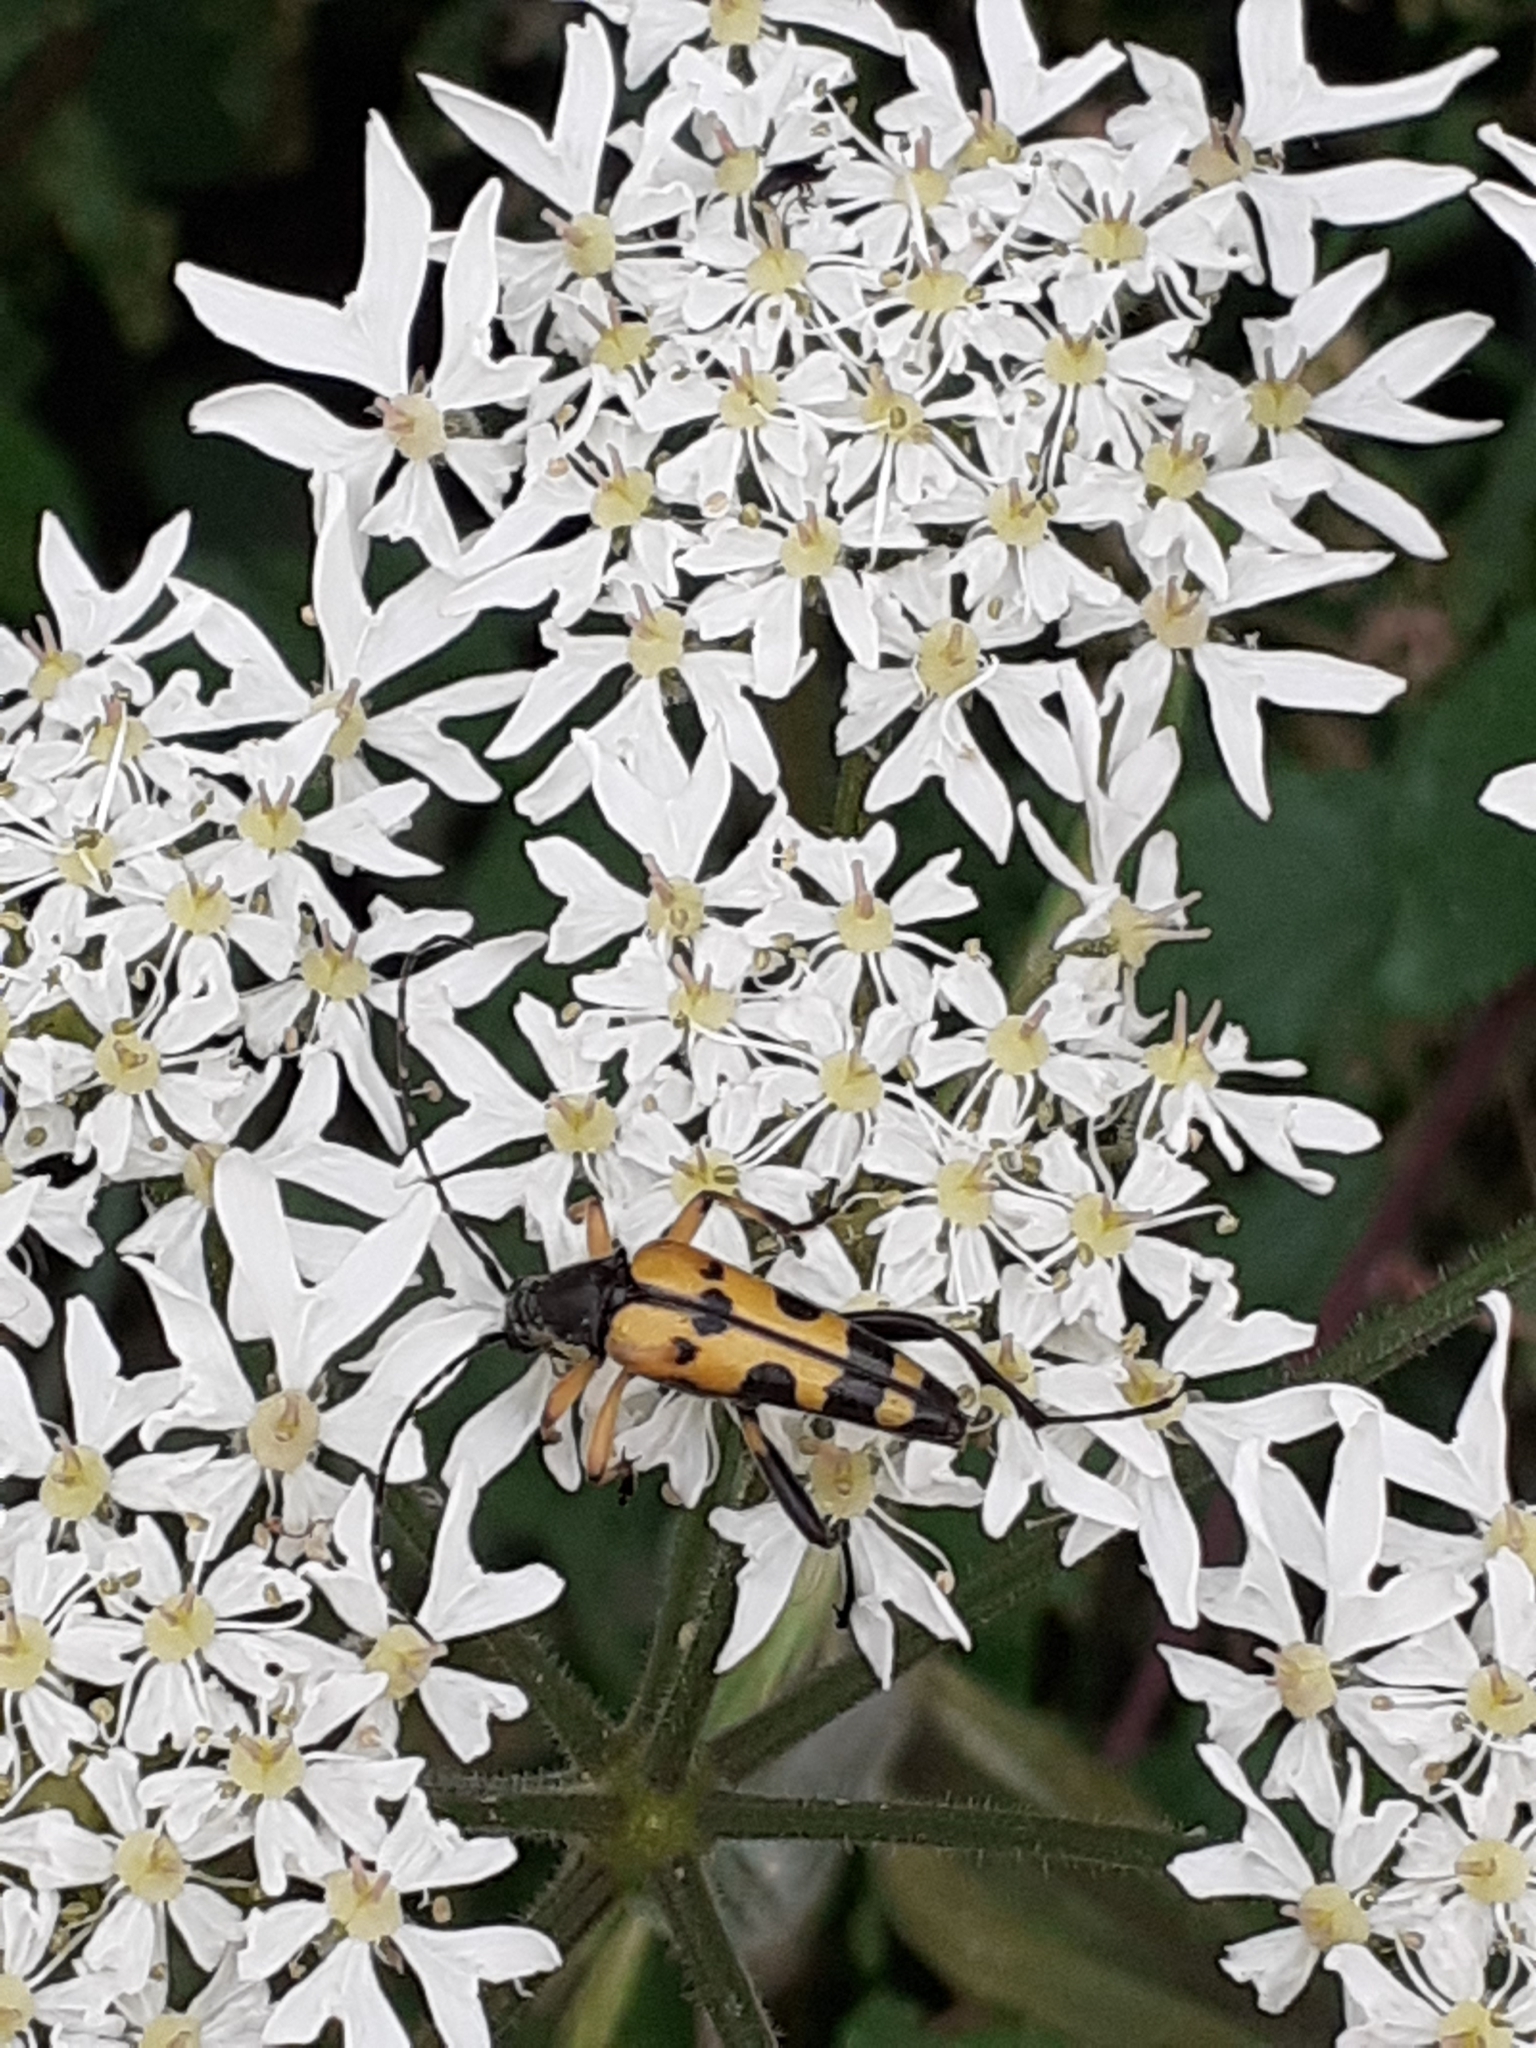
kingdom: Animalia
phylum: Arthropoda
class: Insecta
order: Coleoptera
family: Cerambycidae
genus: Rutpela
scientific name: Rutpela maculata
